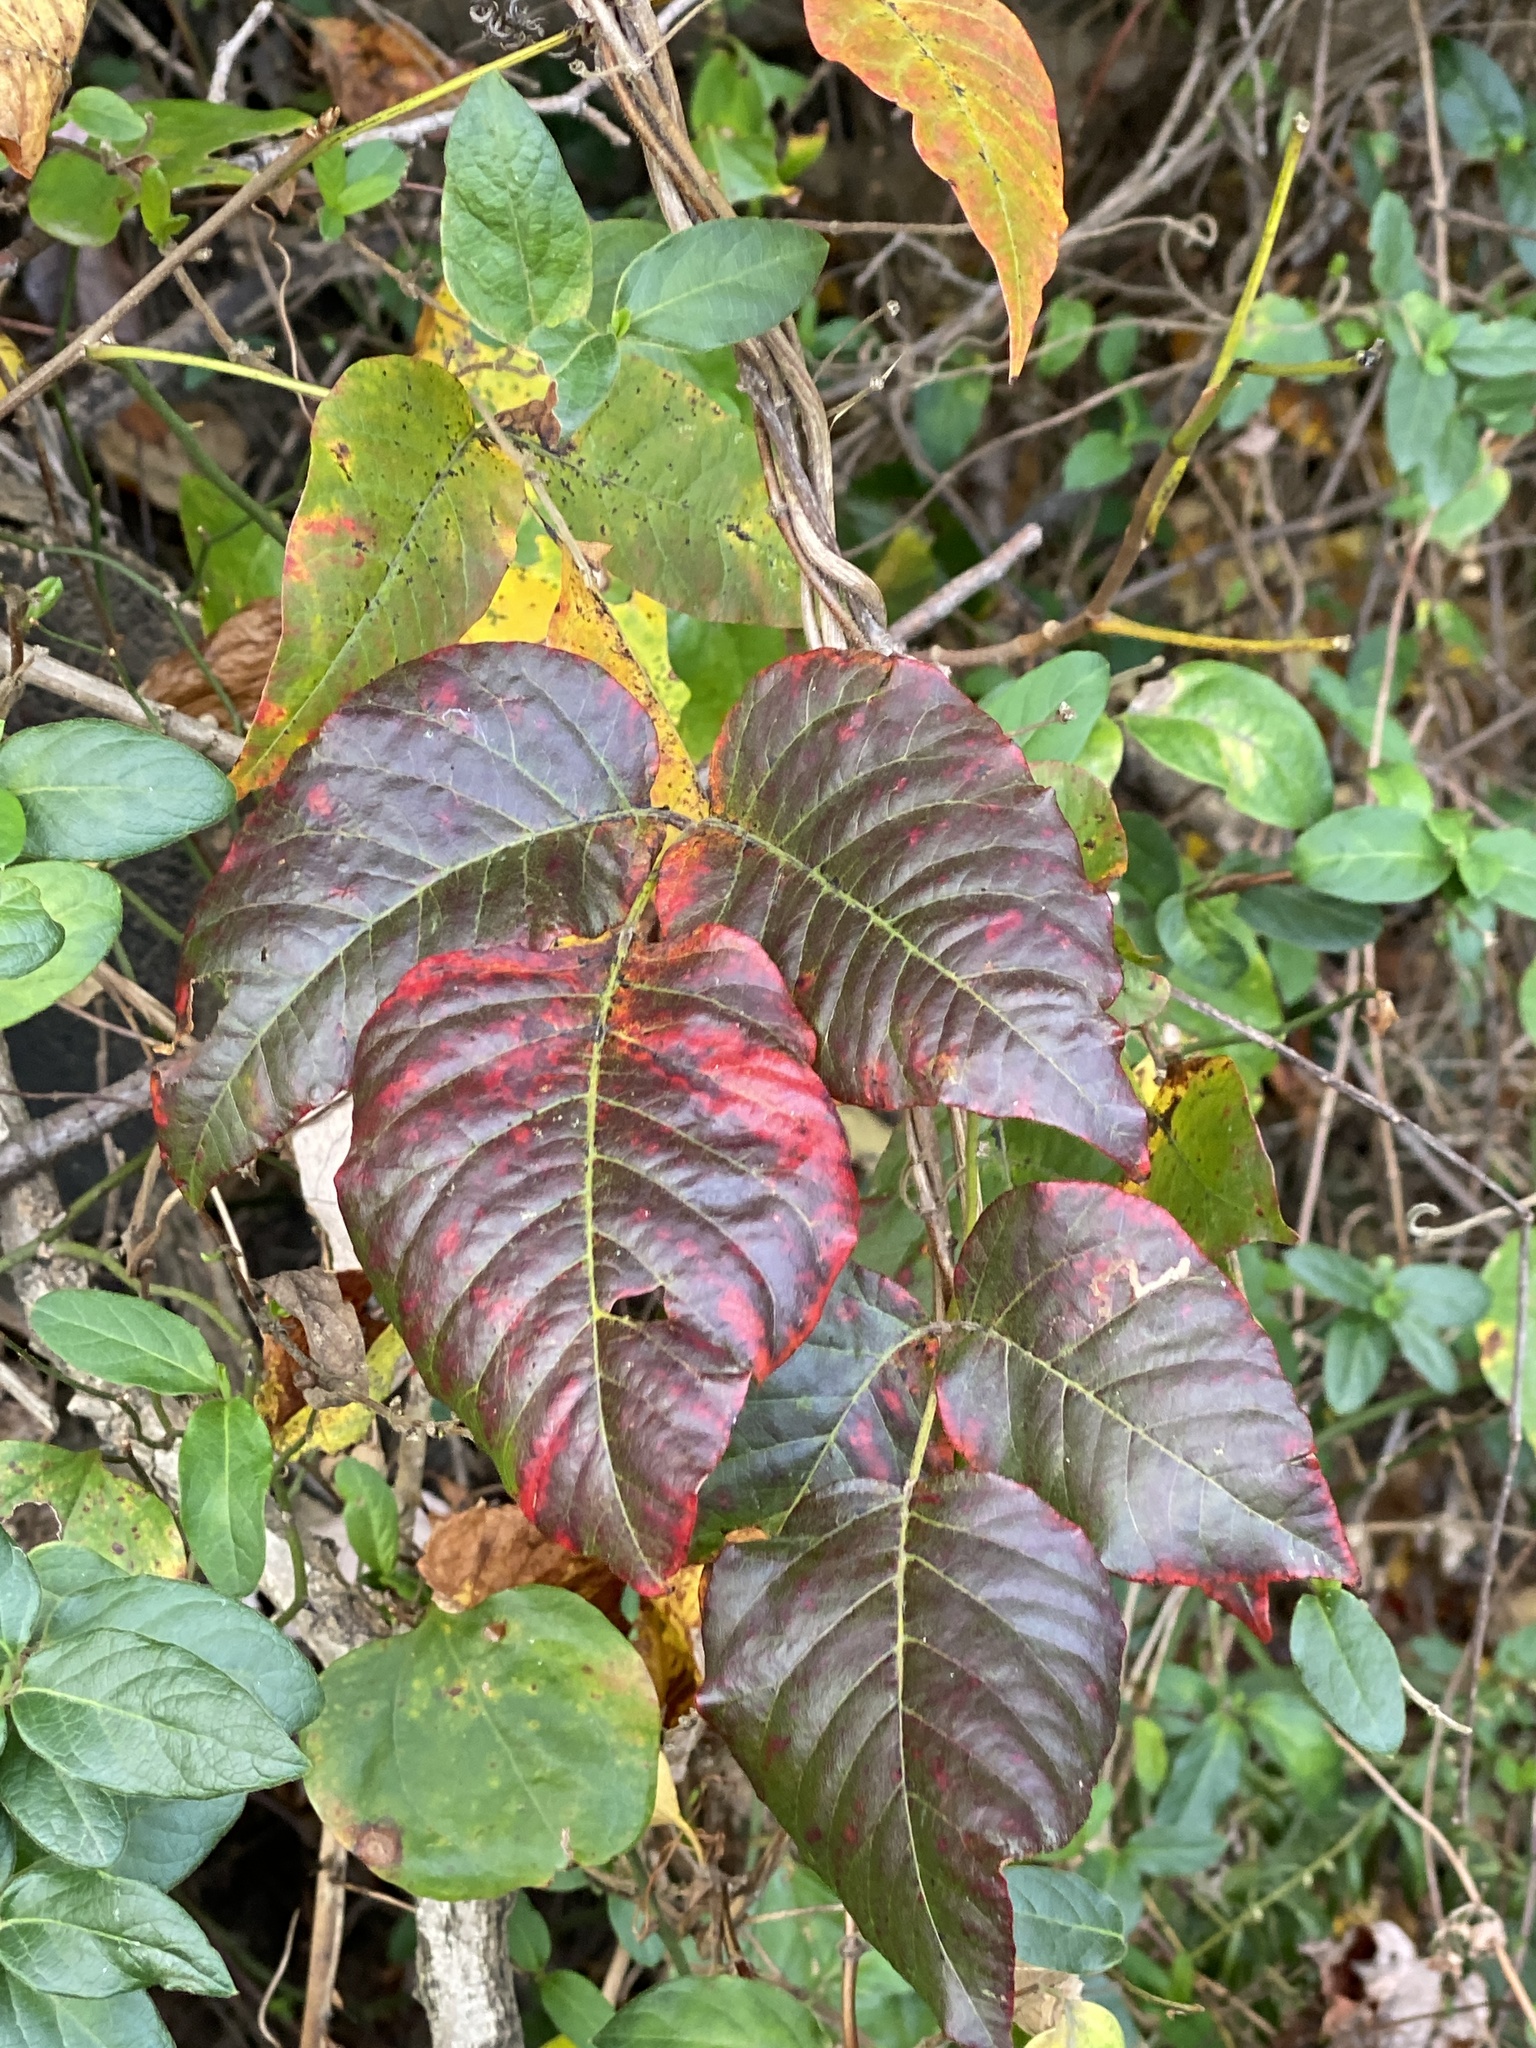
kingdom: Plantae
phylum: Tracheophyta
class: Magnoliopsida
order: Sapindales
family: Anacardiaceae
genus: Toxicodendron
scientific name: Toxicodendron radicans
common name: Poison ivy
